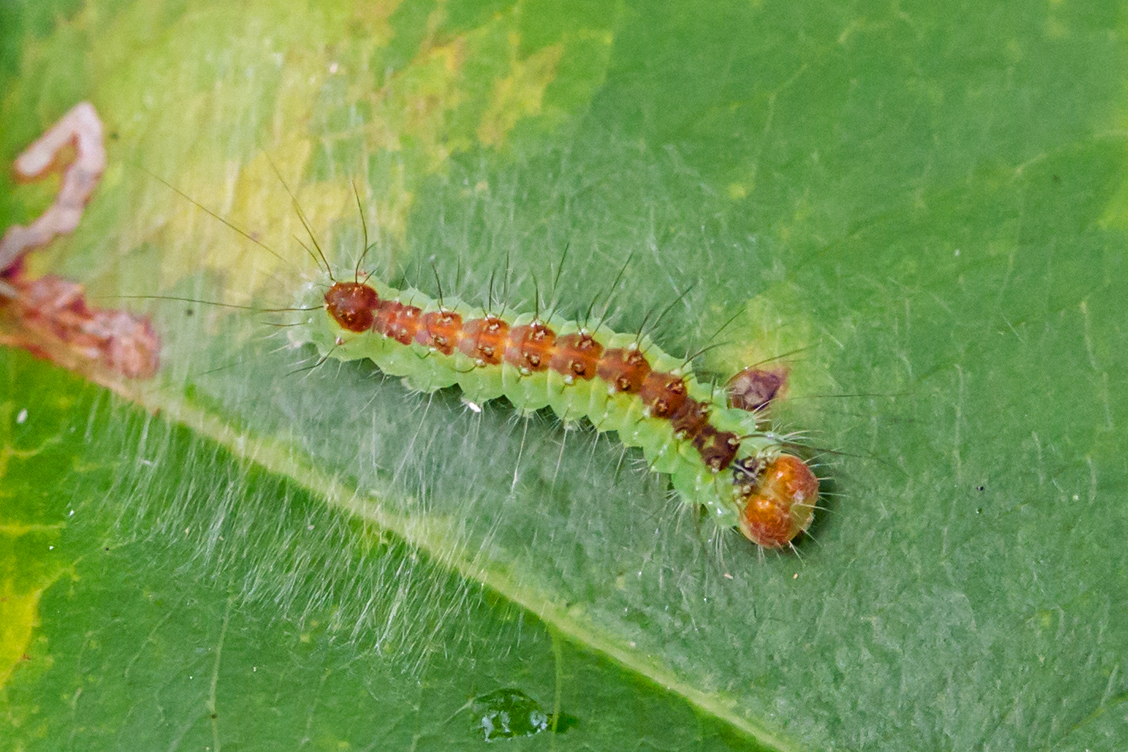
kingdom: Animalia
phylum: Arthropoda
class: Insecta
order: Lepidoptera
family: Noctuidae
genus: Acronicta
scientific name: Acronicta radcliffei
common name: Radcliffe's dagger
